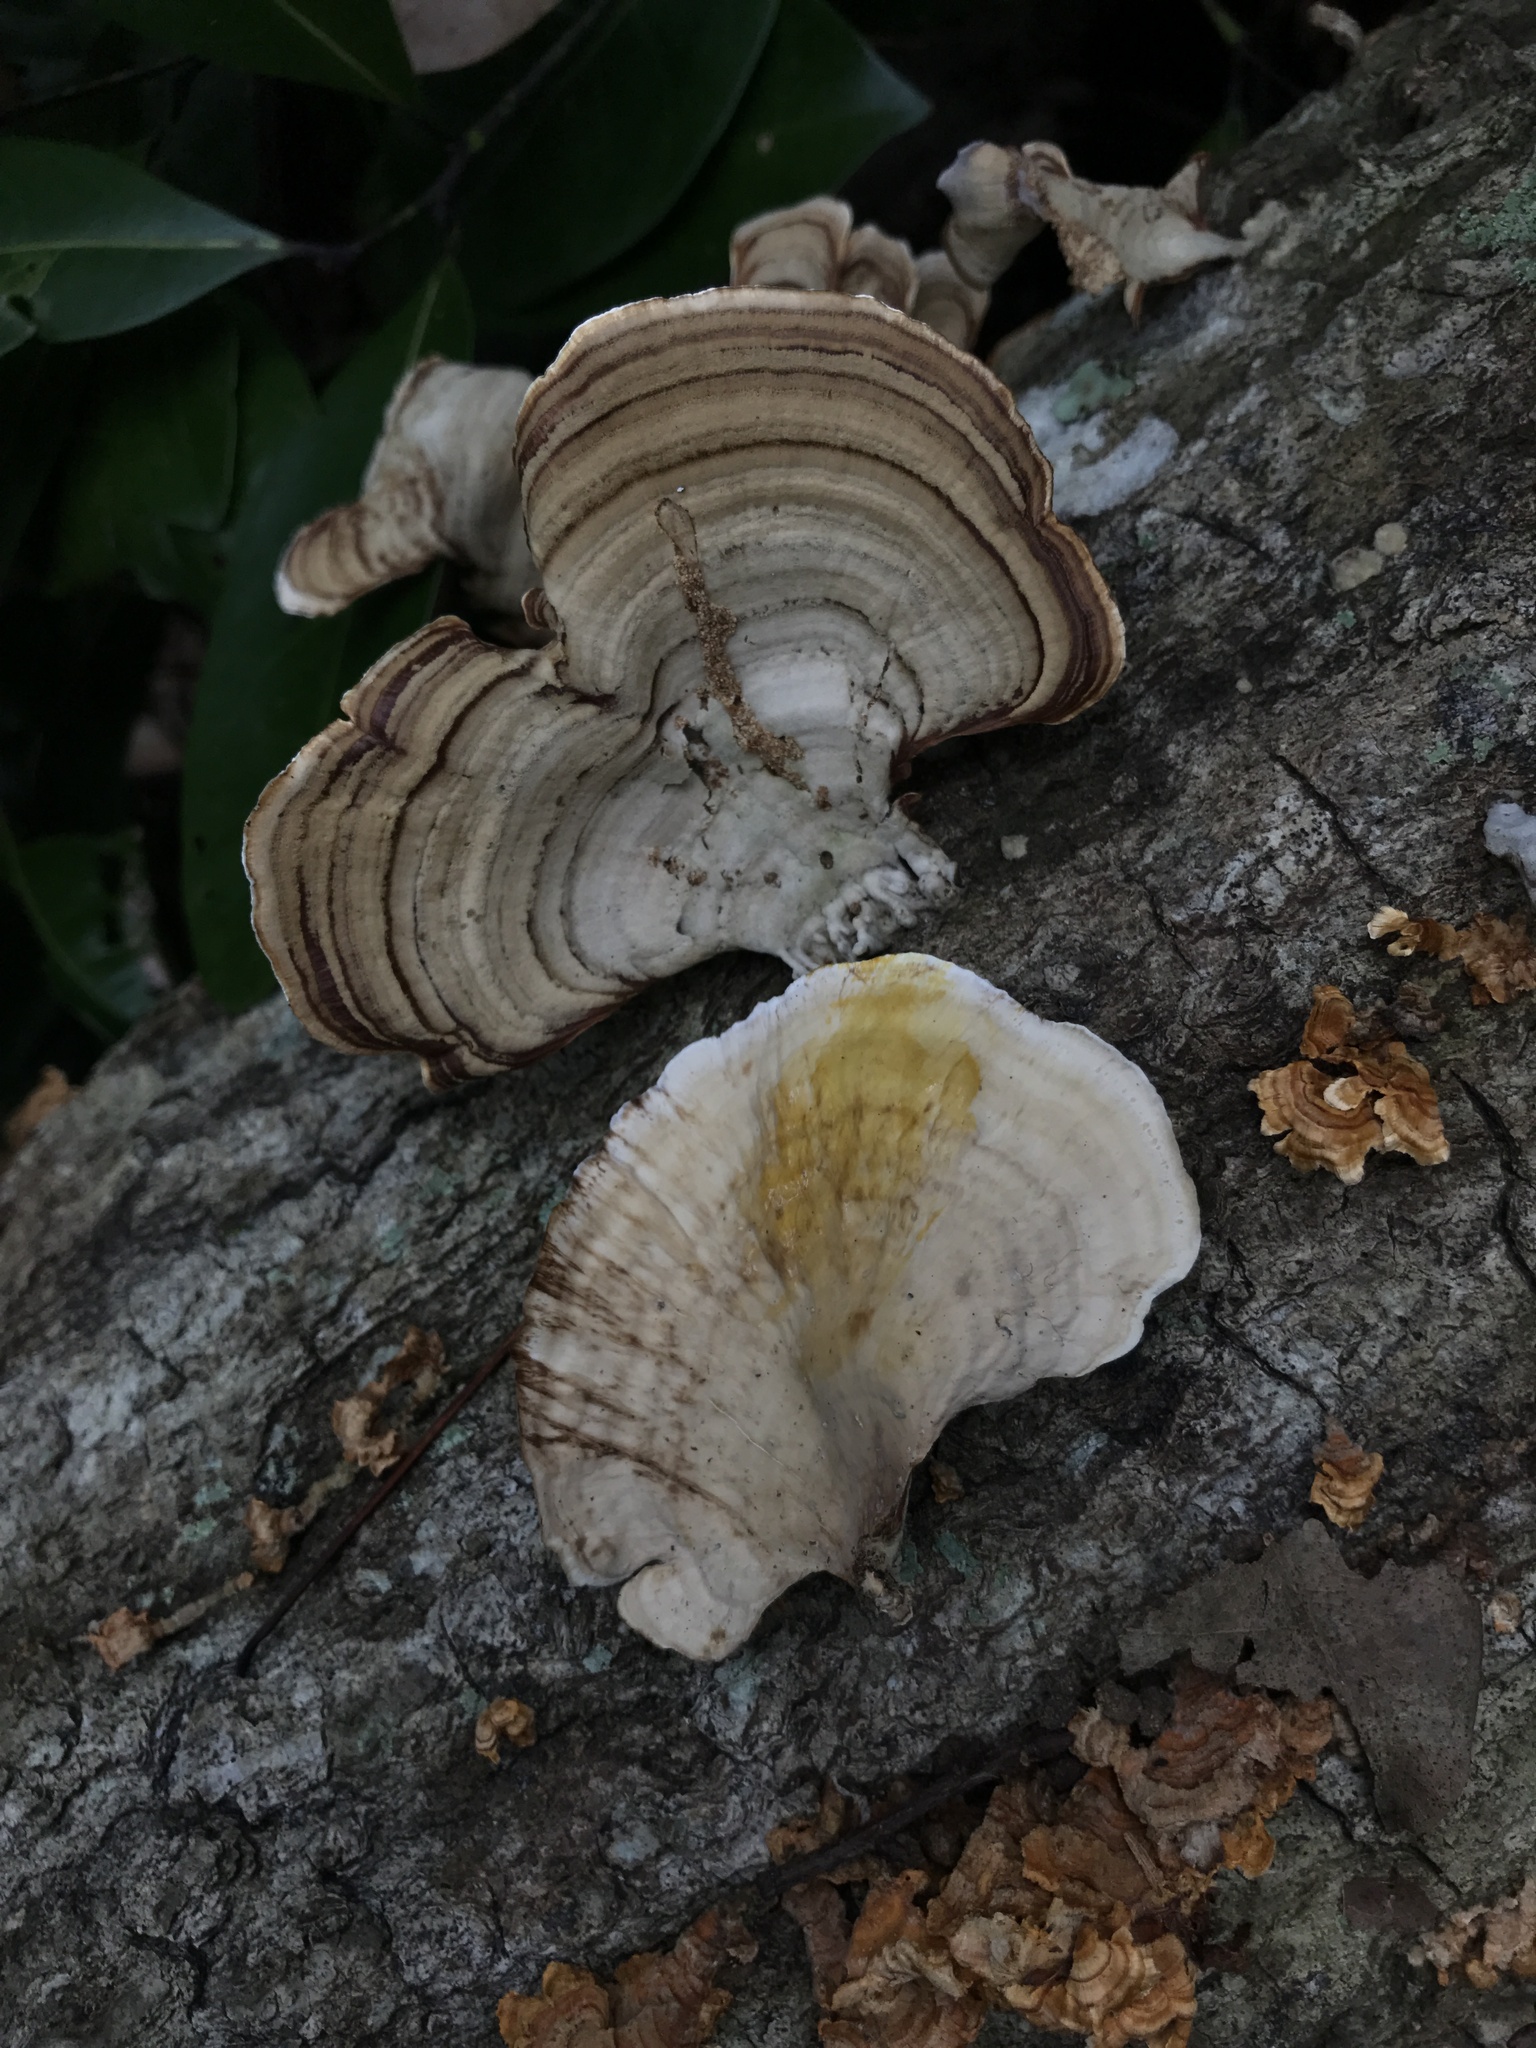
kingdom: Fungi
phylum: Basidiomycota
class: Agaricomycetes
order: Russulales
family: Stereaceae
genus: Stereum
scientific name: Stereum lobatum
